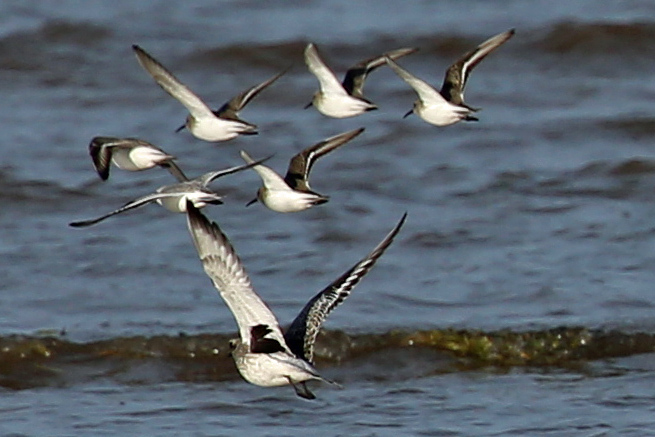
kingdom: Animalia
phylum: Chordata
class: Aves
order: Charadriiformes
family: Charadriidae
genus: Pluvialis
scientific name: Pluvialis squatarola
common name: Grey plover
